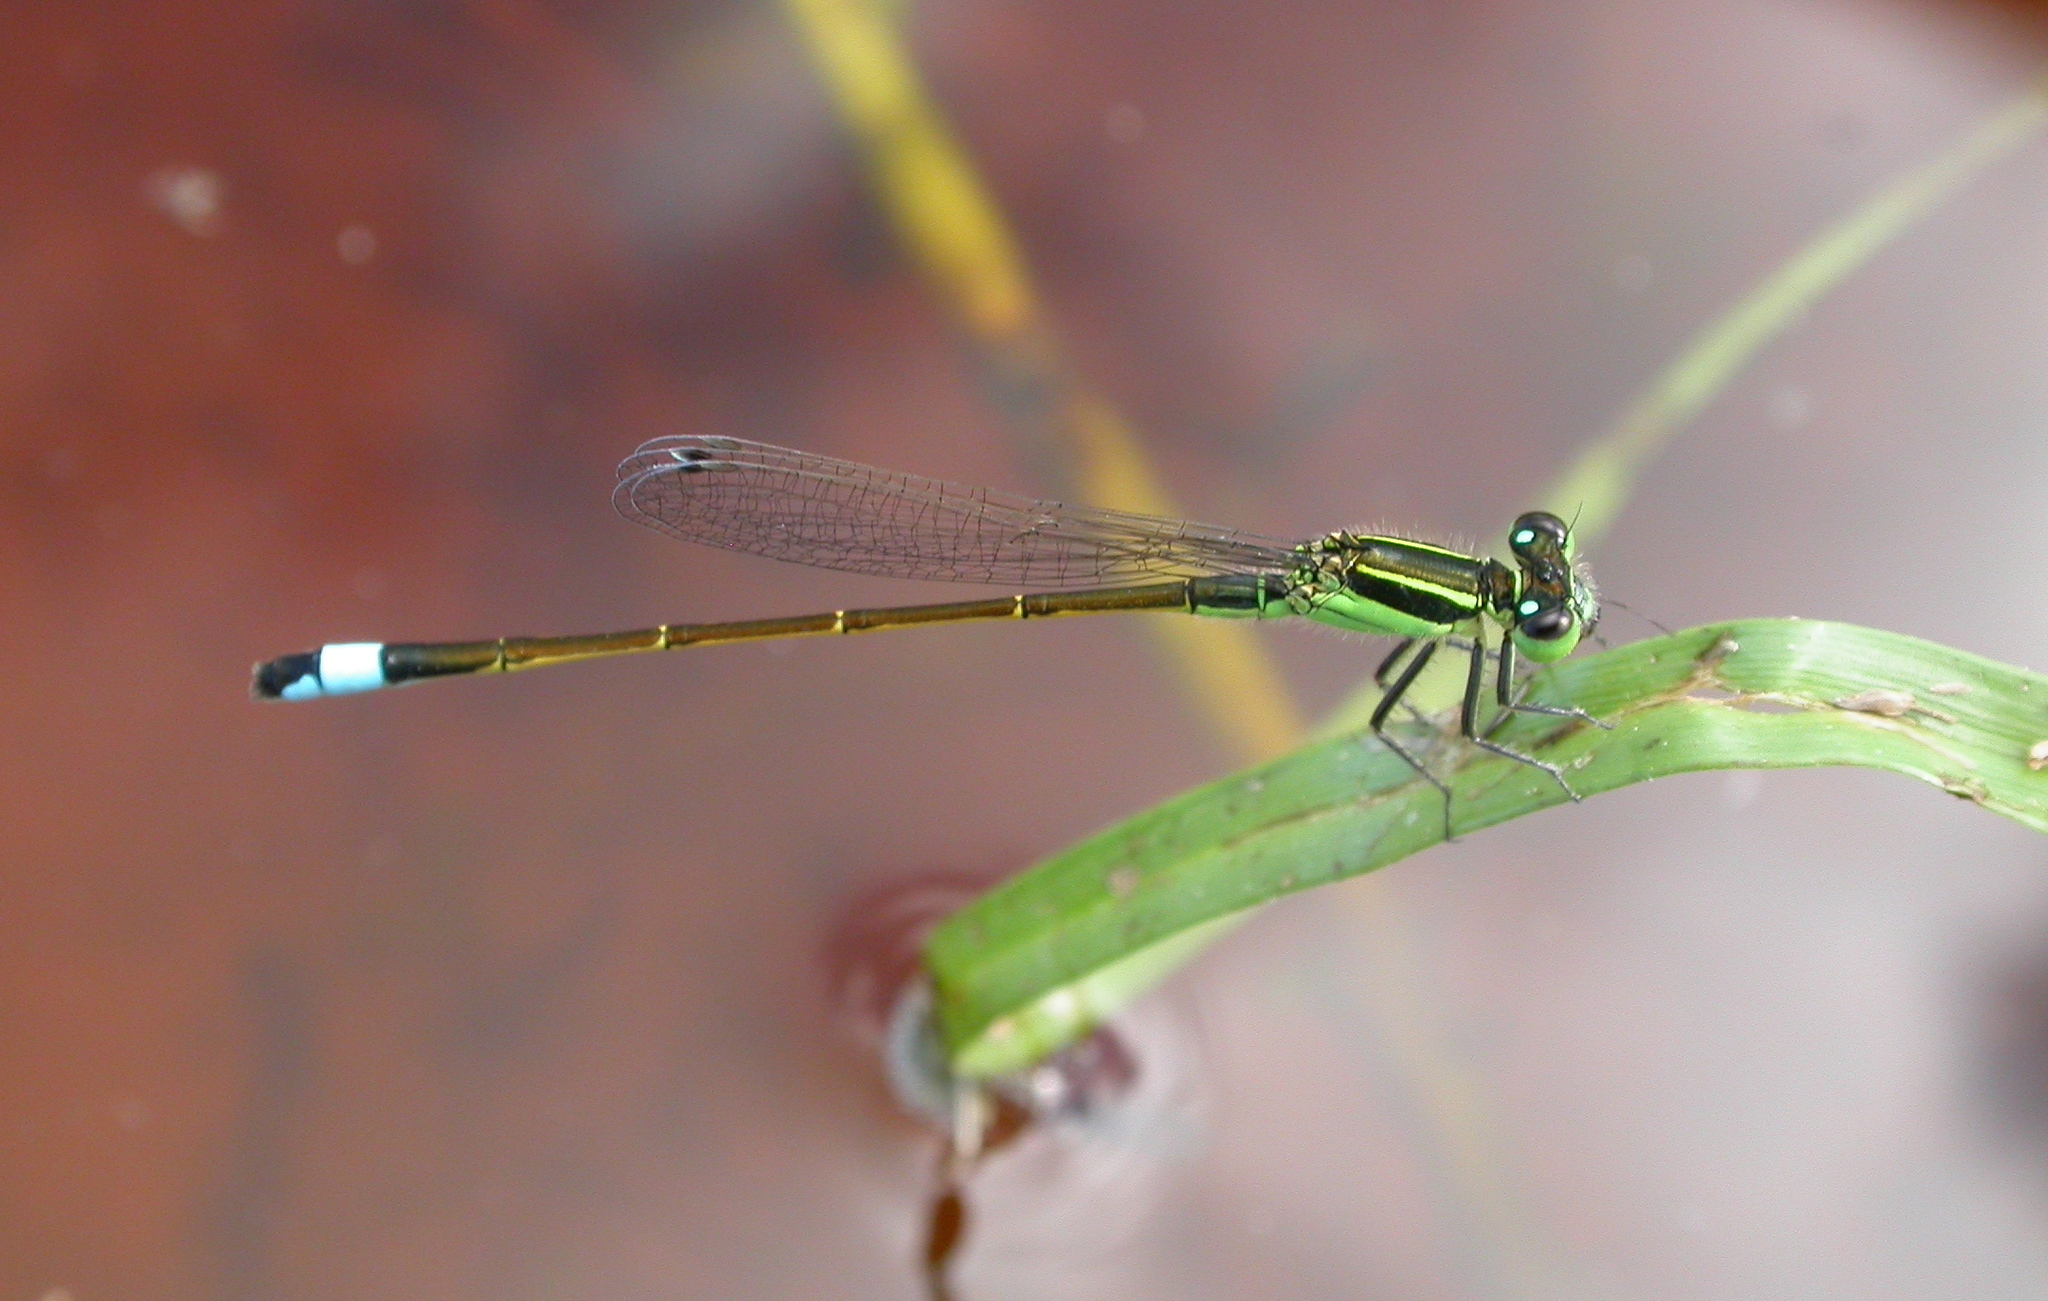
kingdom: Animalia
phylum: Arthropoda
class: Insecta
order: Odonata
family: Coenagrionidae
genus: Ischnura
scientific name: Ischnura ramburii
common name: Rambur's forktail
